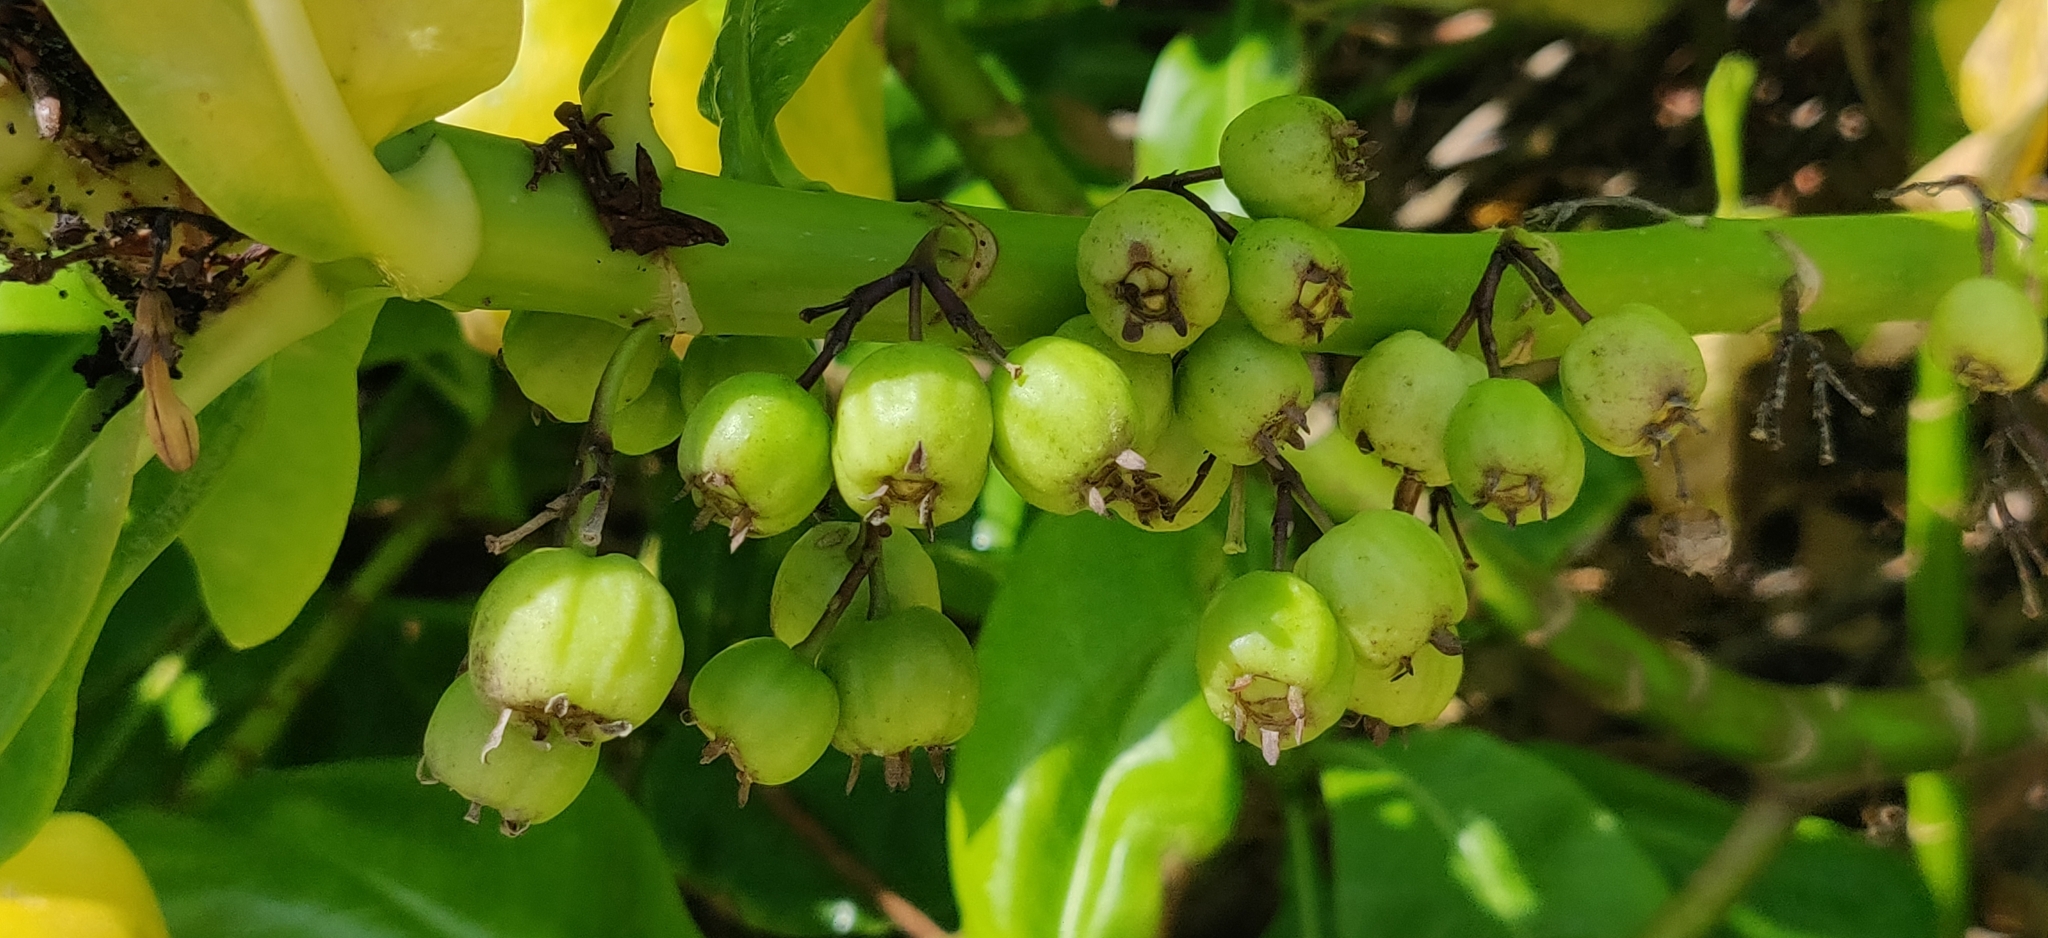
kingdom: Plantae
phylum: Tracheophyta
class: Magnoliopsida
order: Asterales
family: Goodeniaceae
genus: Scaevola
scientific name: Scaevola taccada
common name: Sea lettucetree
